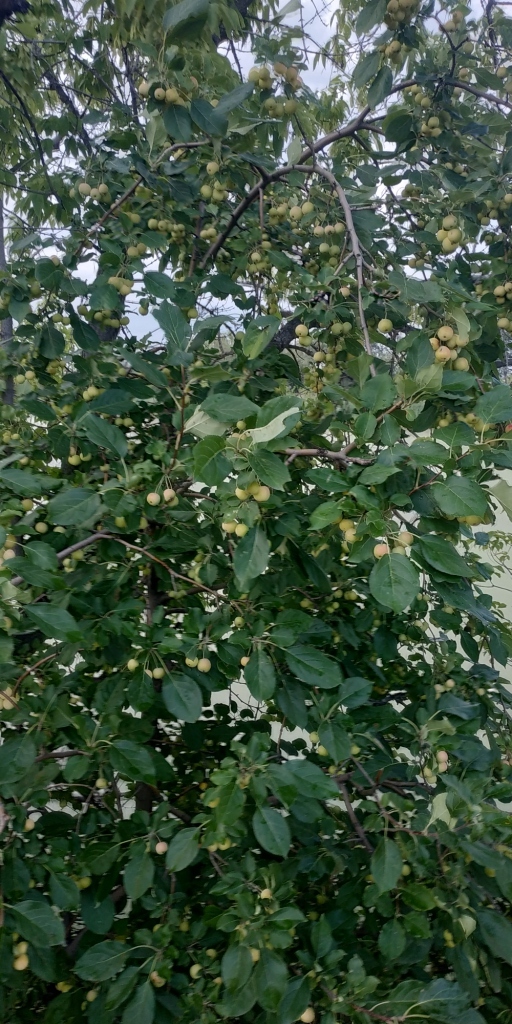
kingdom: Plantae
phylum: Tracheophyta
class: Magnoliopsida
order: Rosales
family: Rosaceae
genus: Malus
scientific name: Malus baccata
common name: Siberian crab
